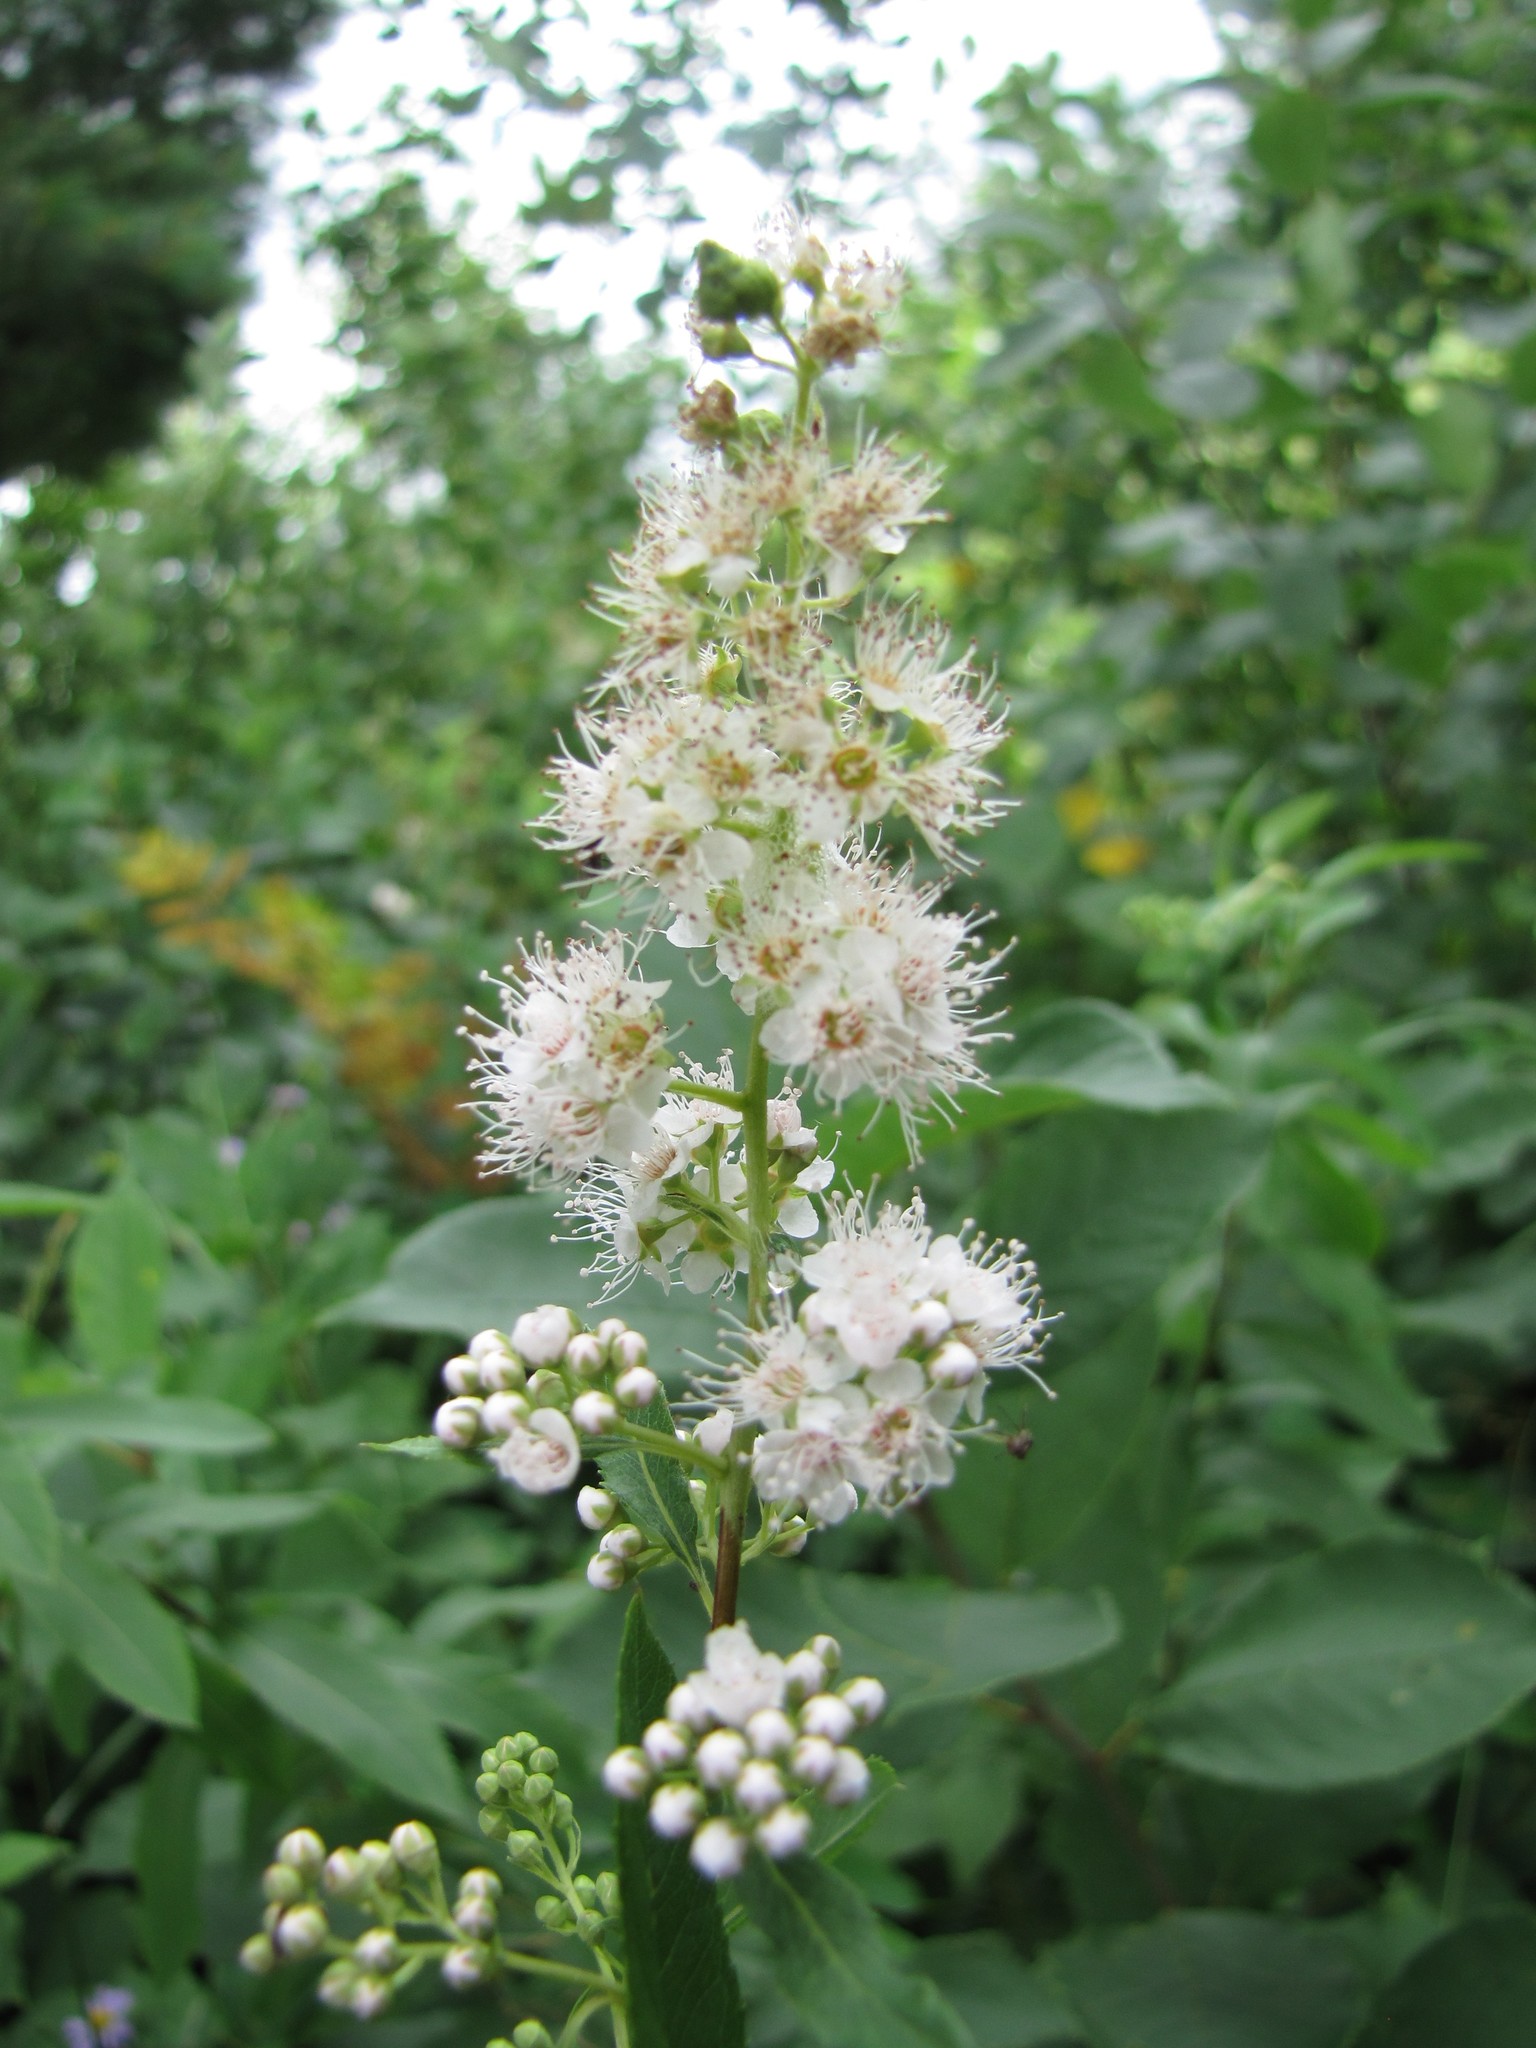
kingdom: Plantae
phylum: Tracheophyta
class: Magnoliopsida
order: Rosales
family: Rosaceae
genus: Spiraea
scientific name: Spiraea alba
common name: Pale bridewort
